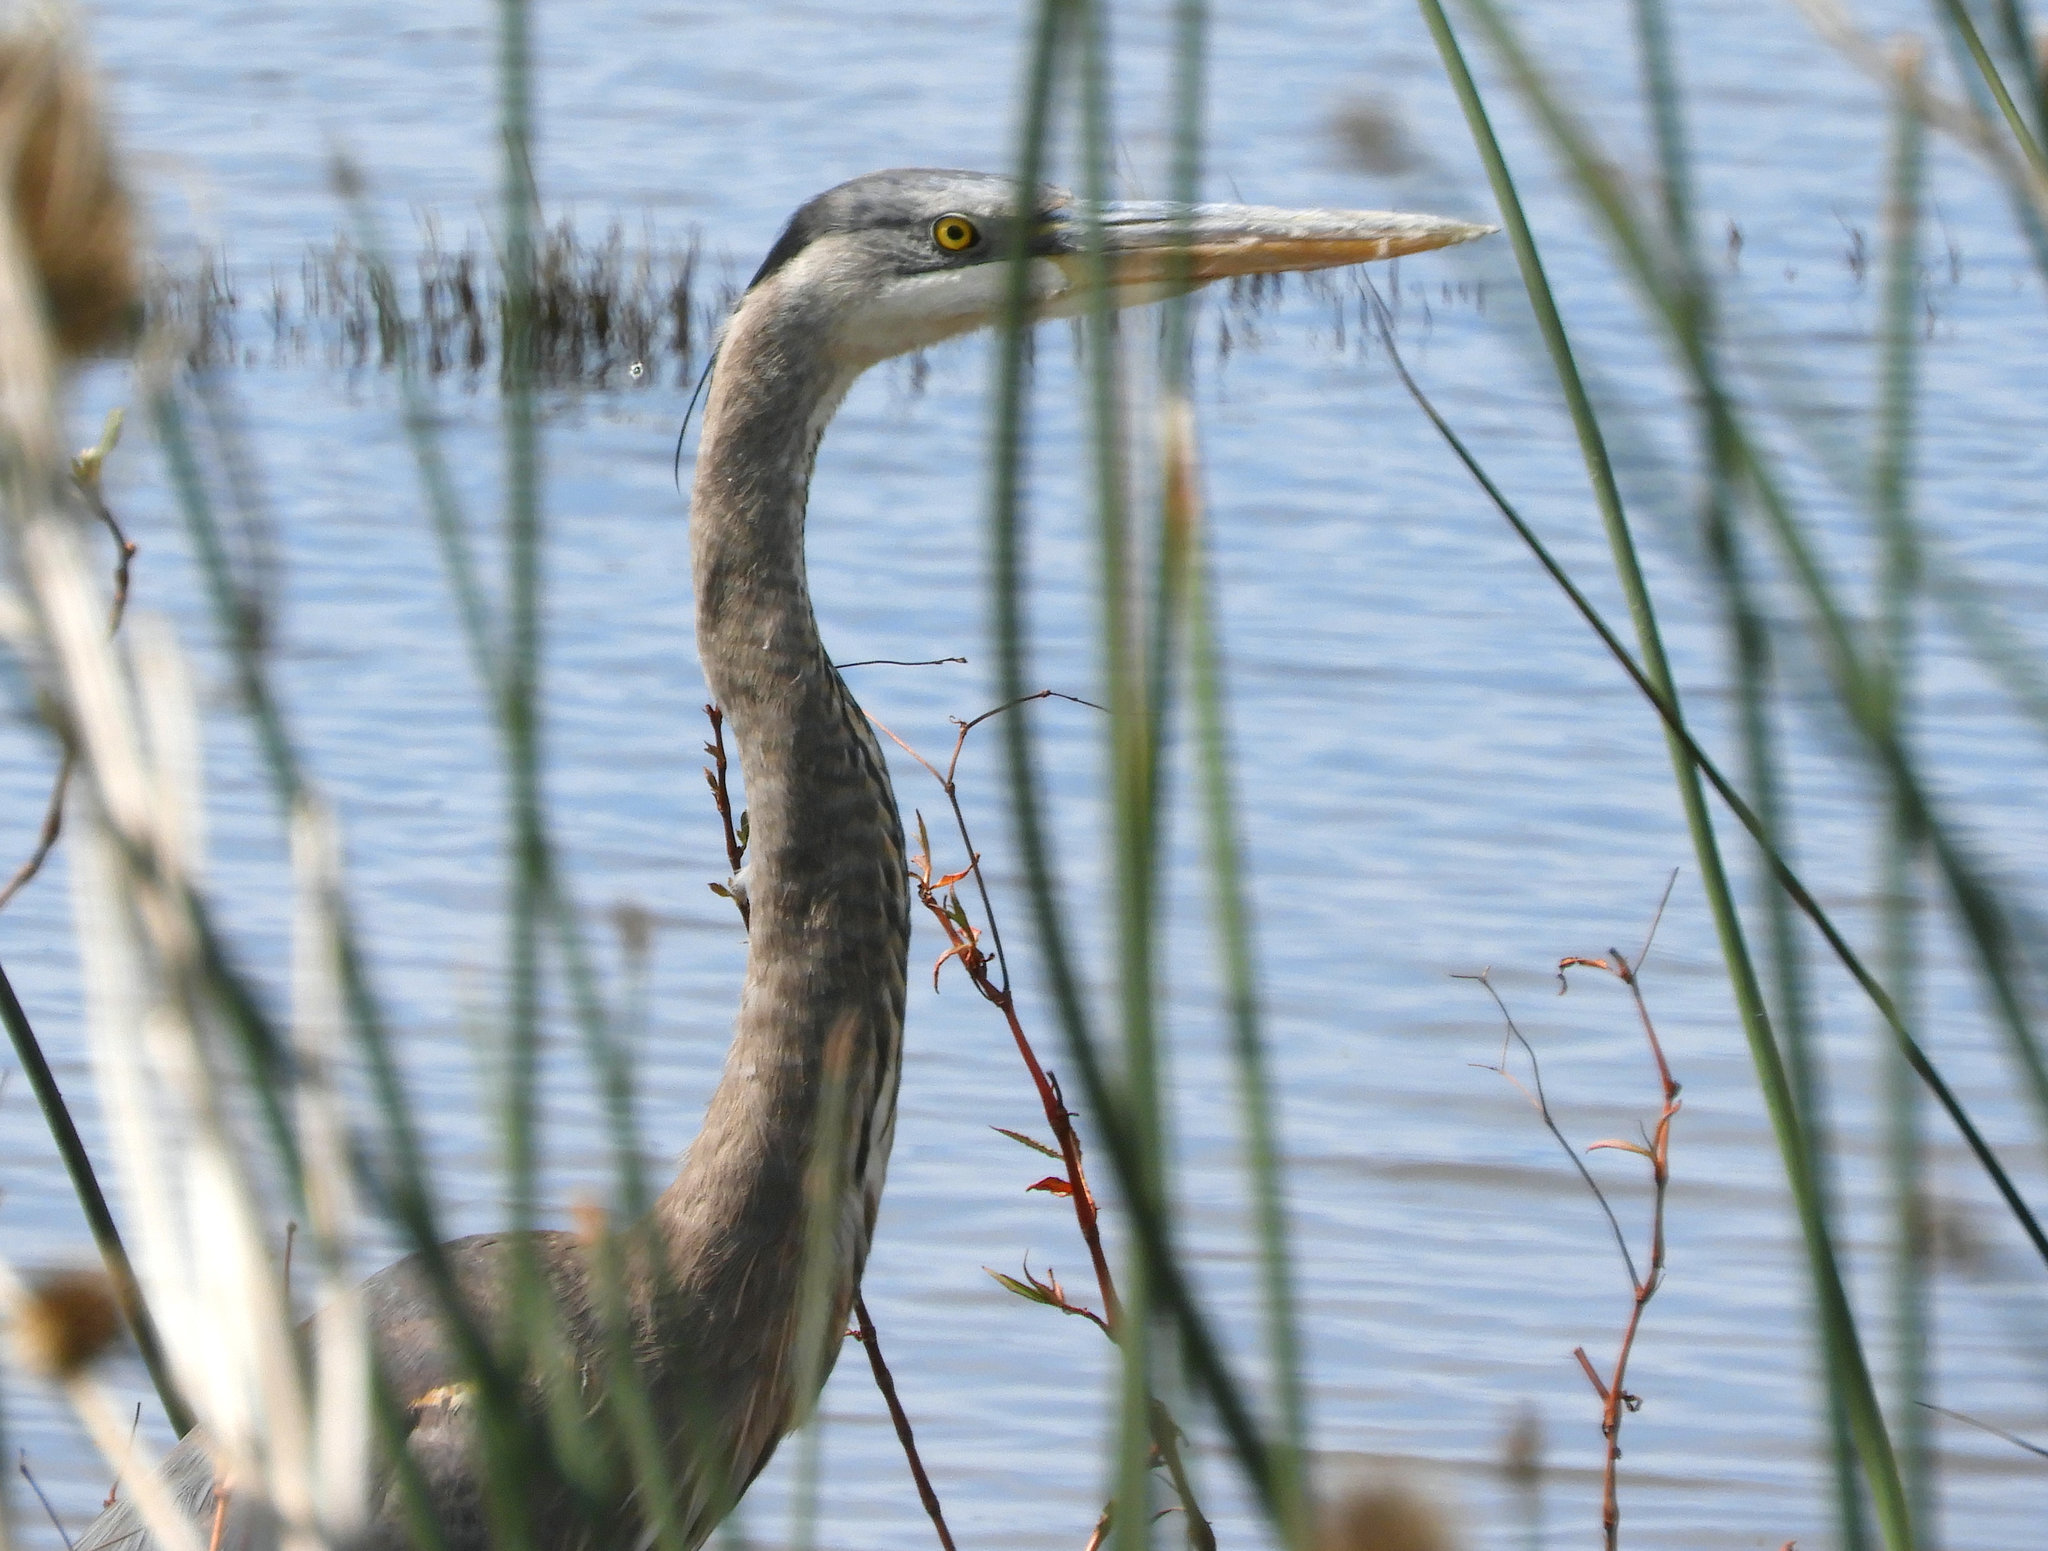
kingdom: Animalia
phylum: Chordata
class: Aves
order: Pelecaniformes
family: Ardeidae
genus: Ardea
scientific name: Ardea herodias
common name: Great blue heron
